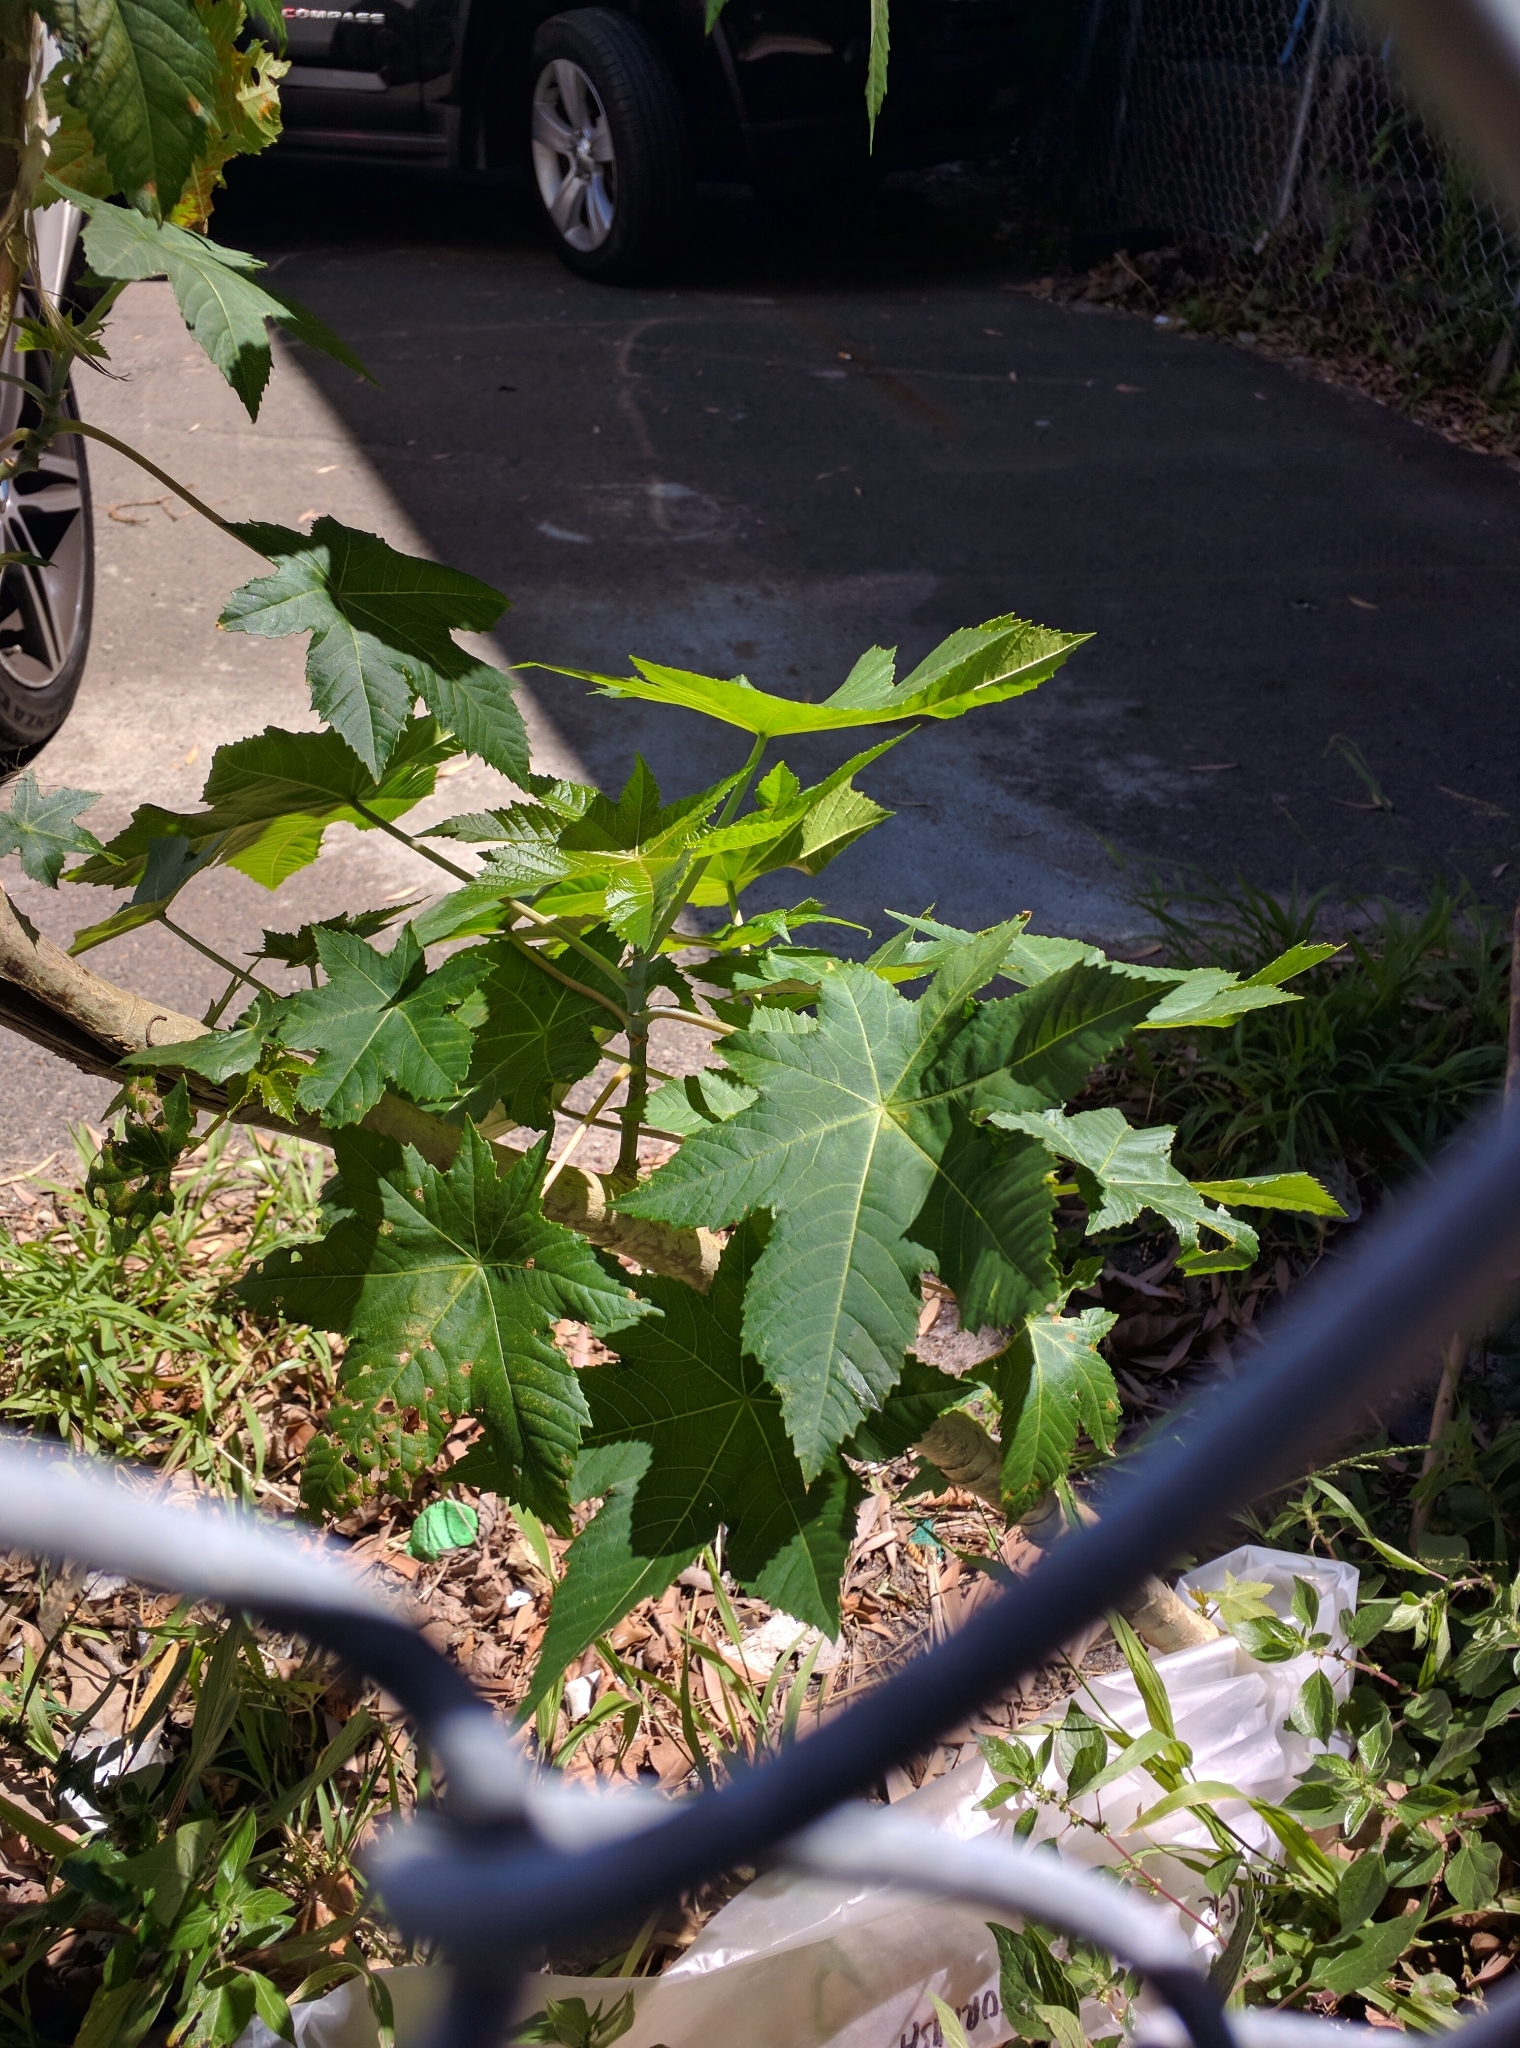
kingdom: Plantae
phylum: Tracheophyta
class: Magnoliopsida
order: Malpighiales
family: Euphorbiaceae
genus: Ricinus
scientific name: Ricinus communis
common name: Castor-oil-plant
